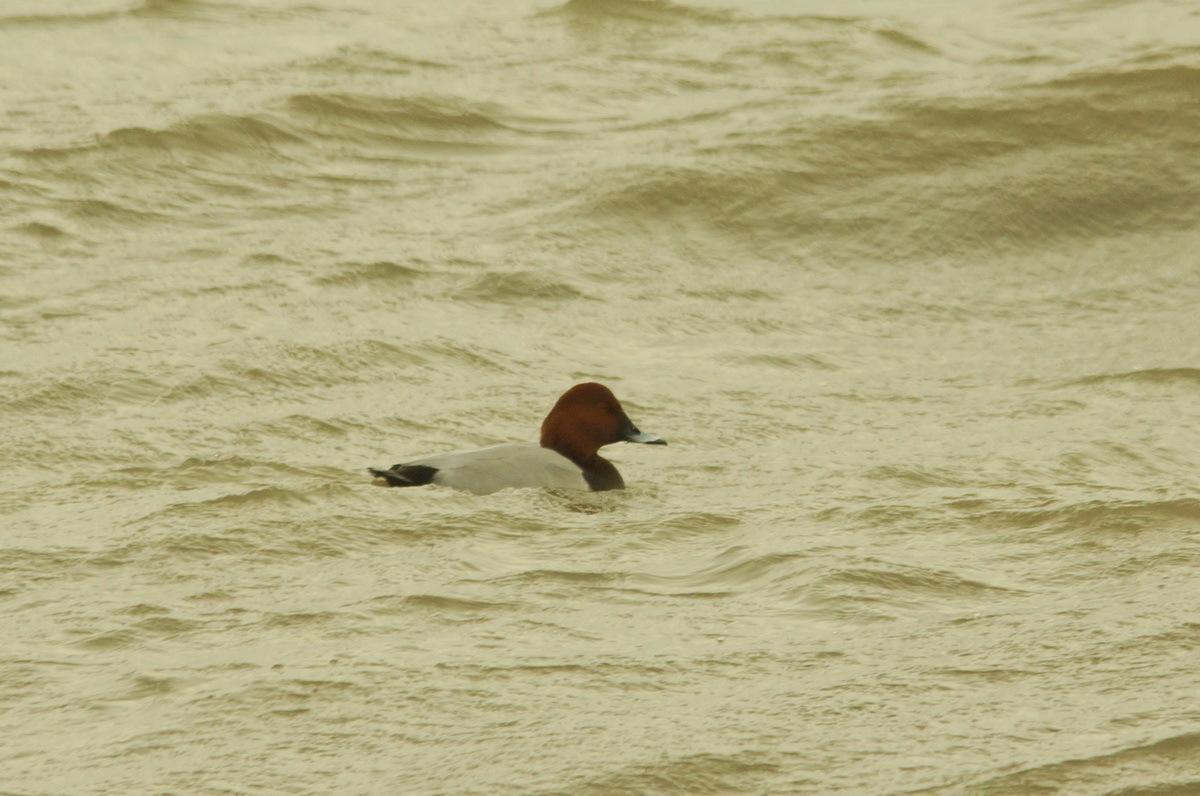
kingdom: Animalia
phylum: Chordata
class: Aves
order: Anseriformes
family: Anatidae
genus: Aythya
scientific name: Aythya ferina
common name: Common pochard
